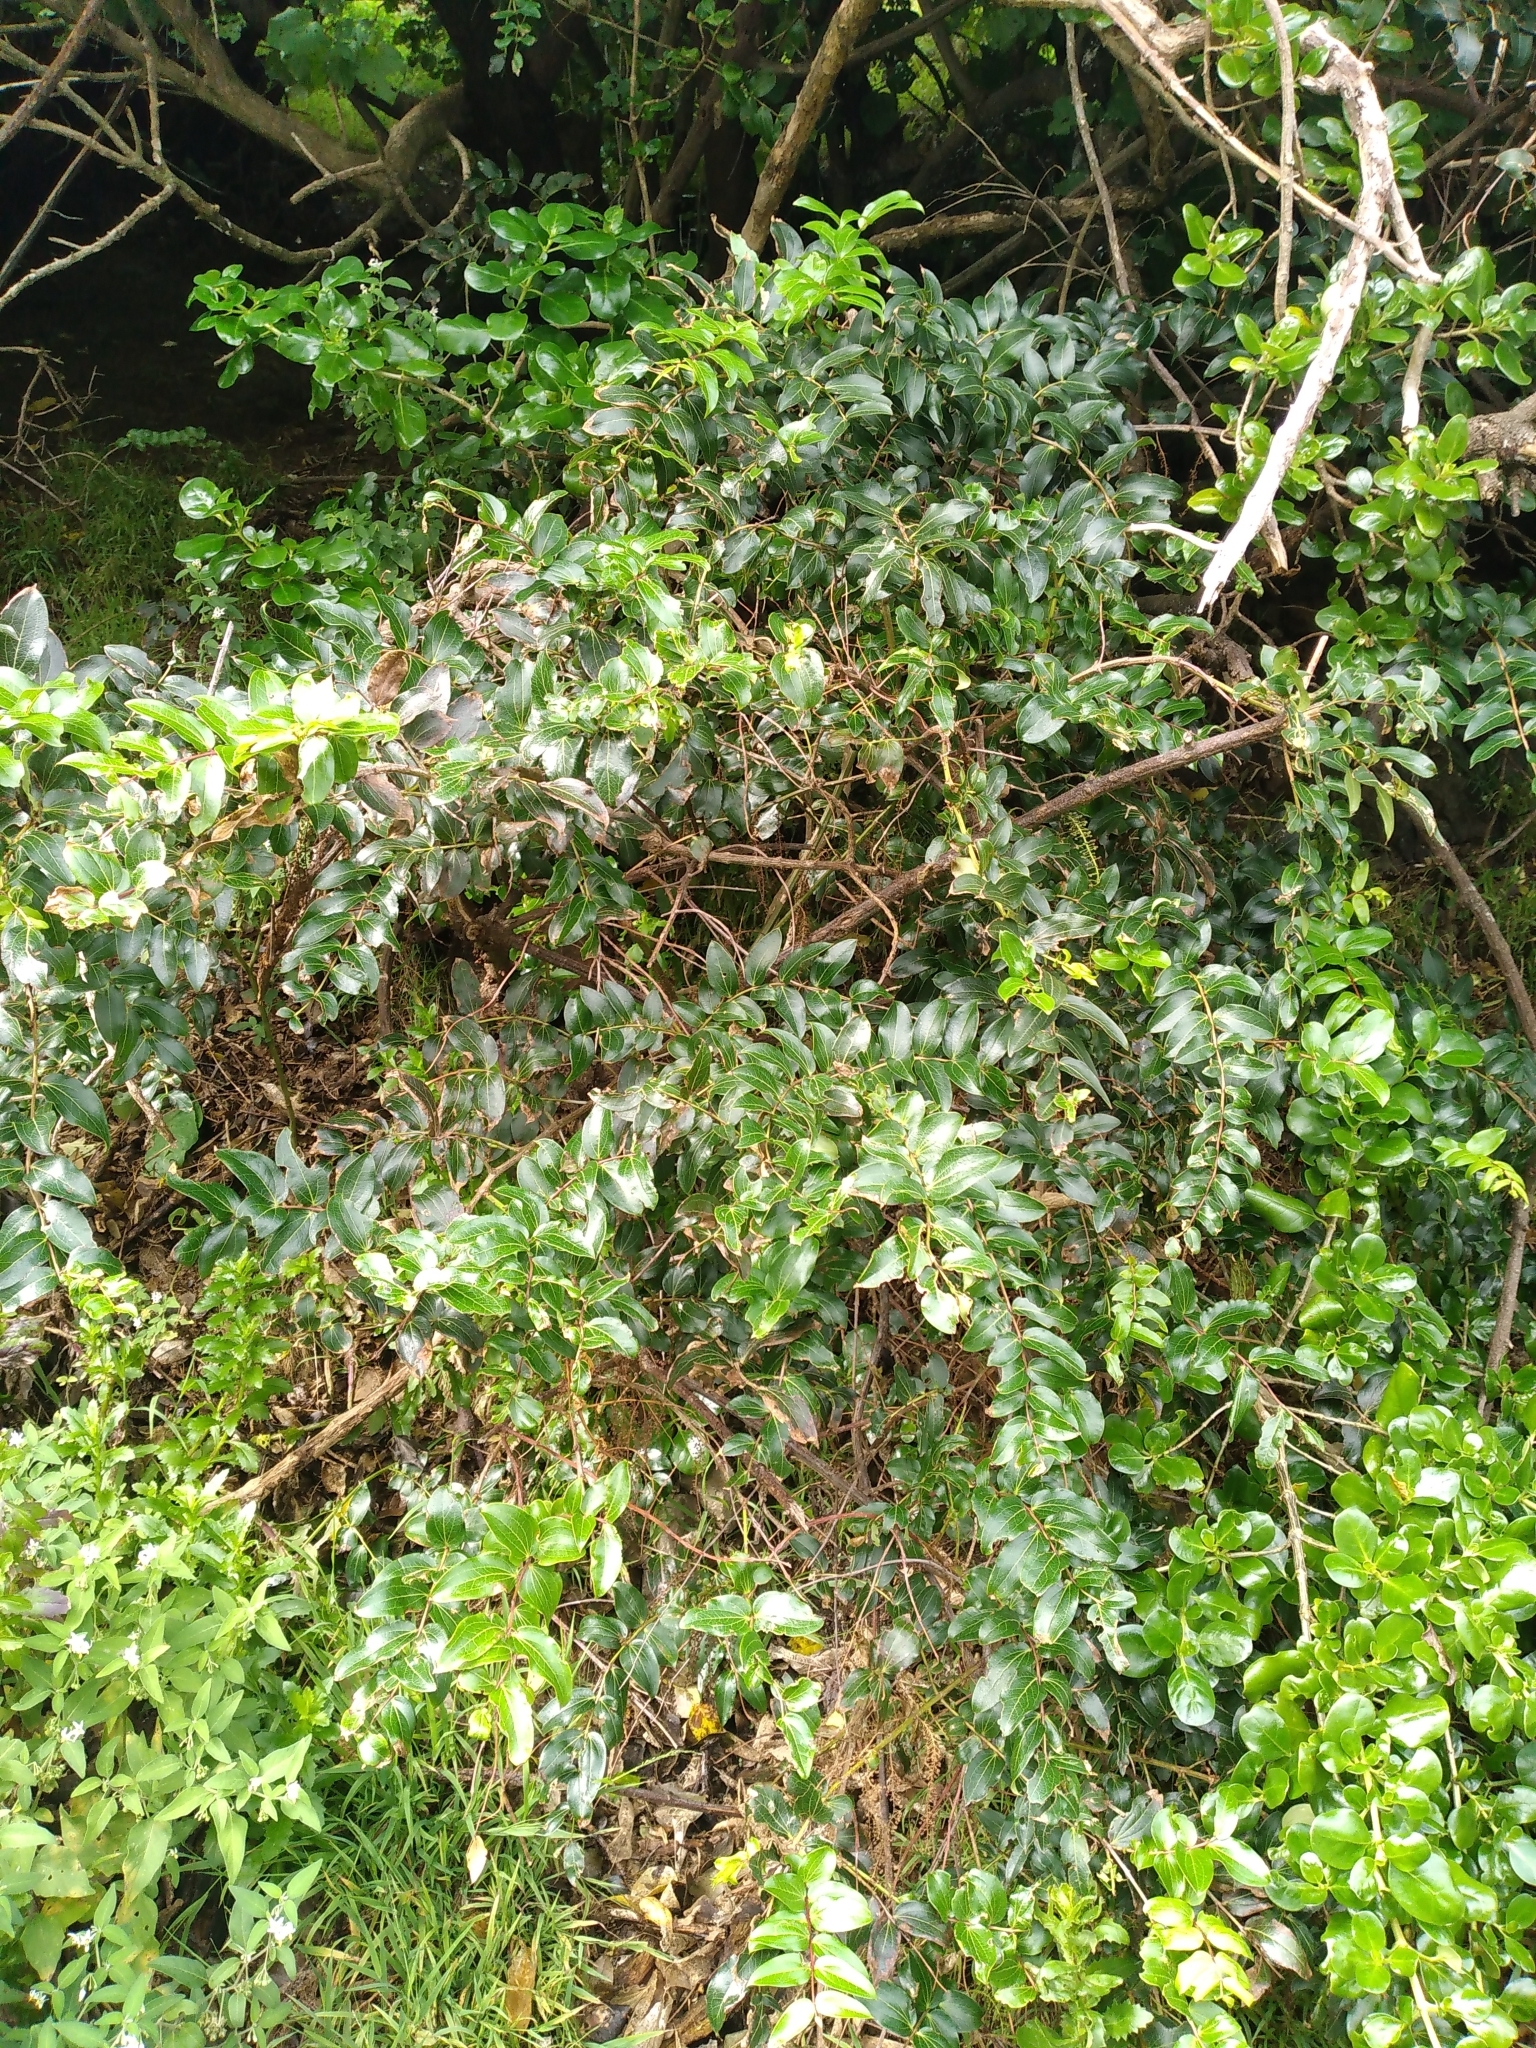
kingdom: Plantae
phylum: Tracheophyta
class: Magnoliopsida
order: Cucurbitales
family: Coriariaceae
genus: Coriaria
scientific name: Coriaria arborea
